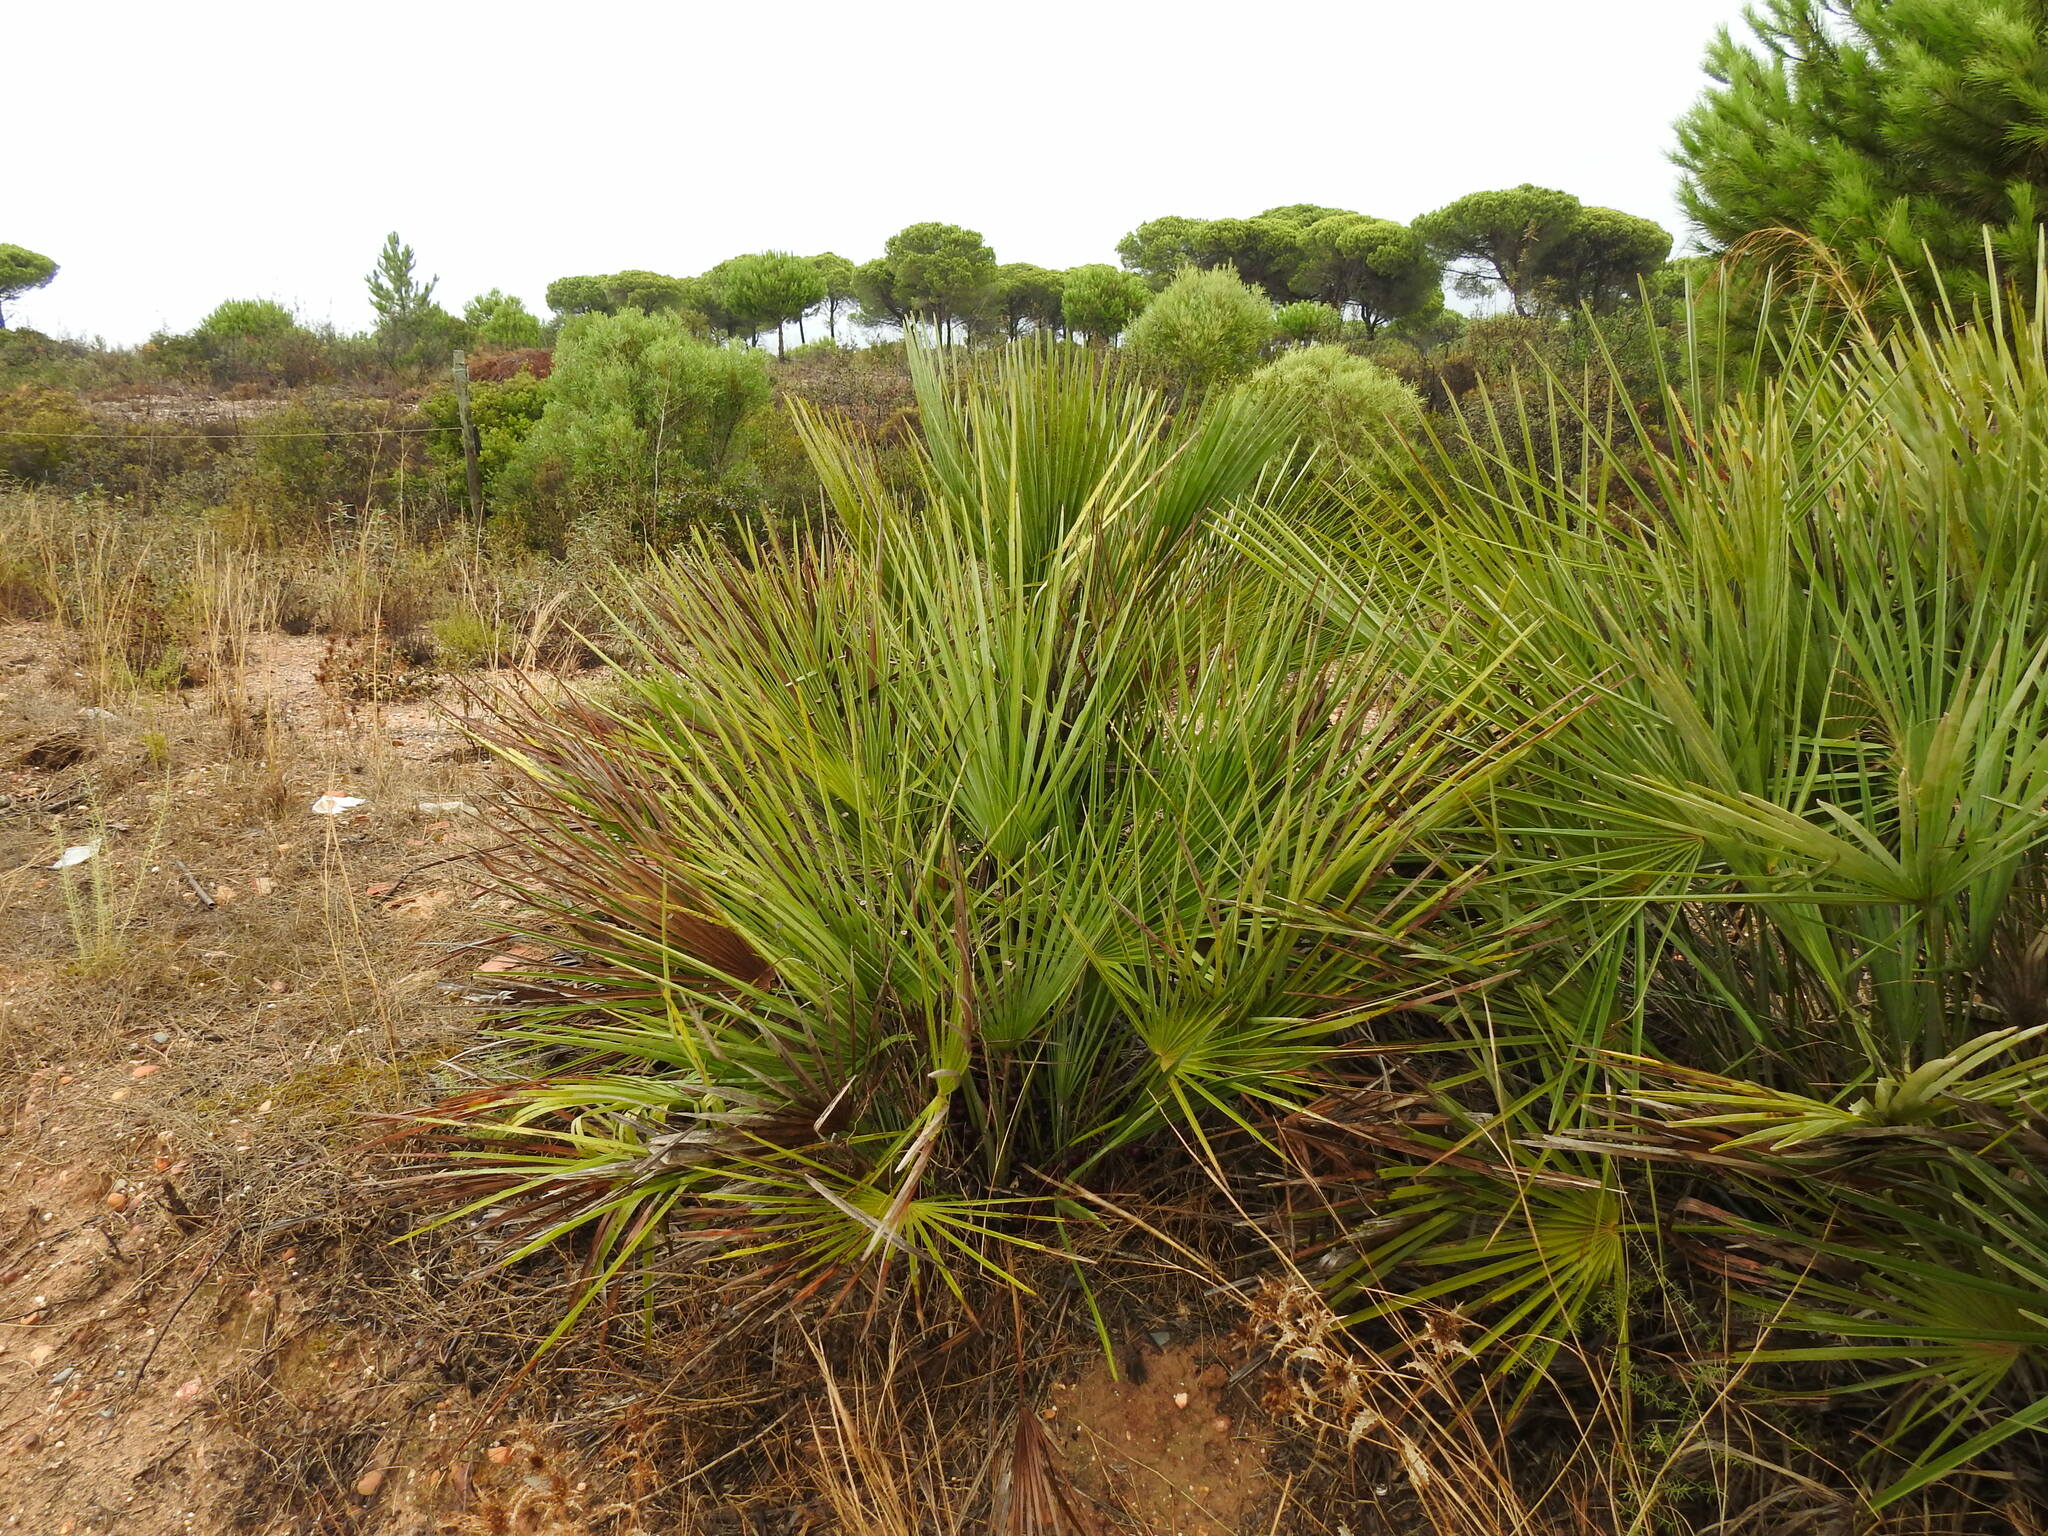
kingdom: Plantae
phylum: Tracheophyta
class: Liliopsida
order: Arecales
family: Arecaceae
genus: Chamaerops
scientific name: Chamaerops humilis
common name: Dwarf fan palm
